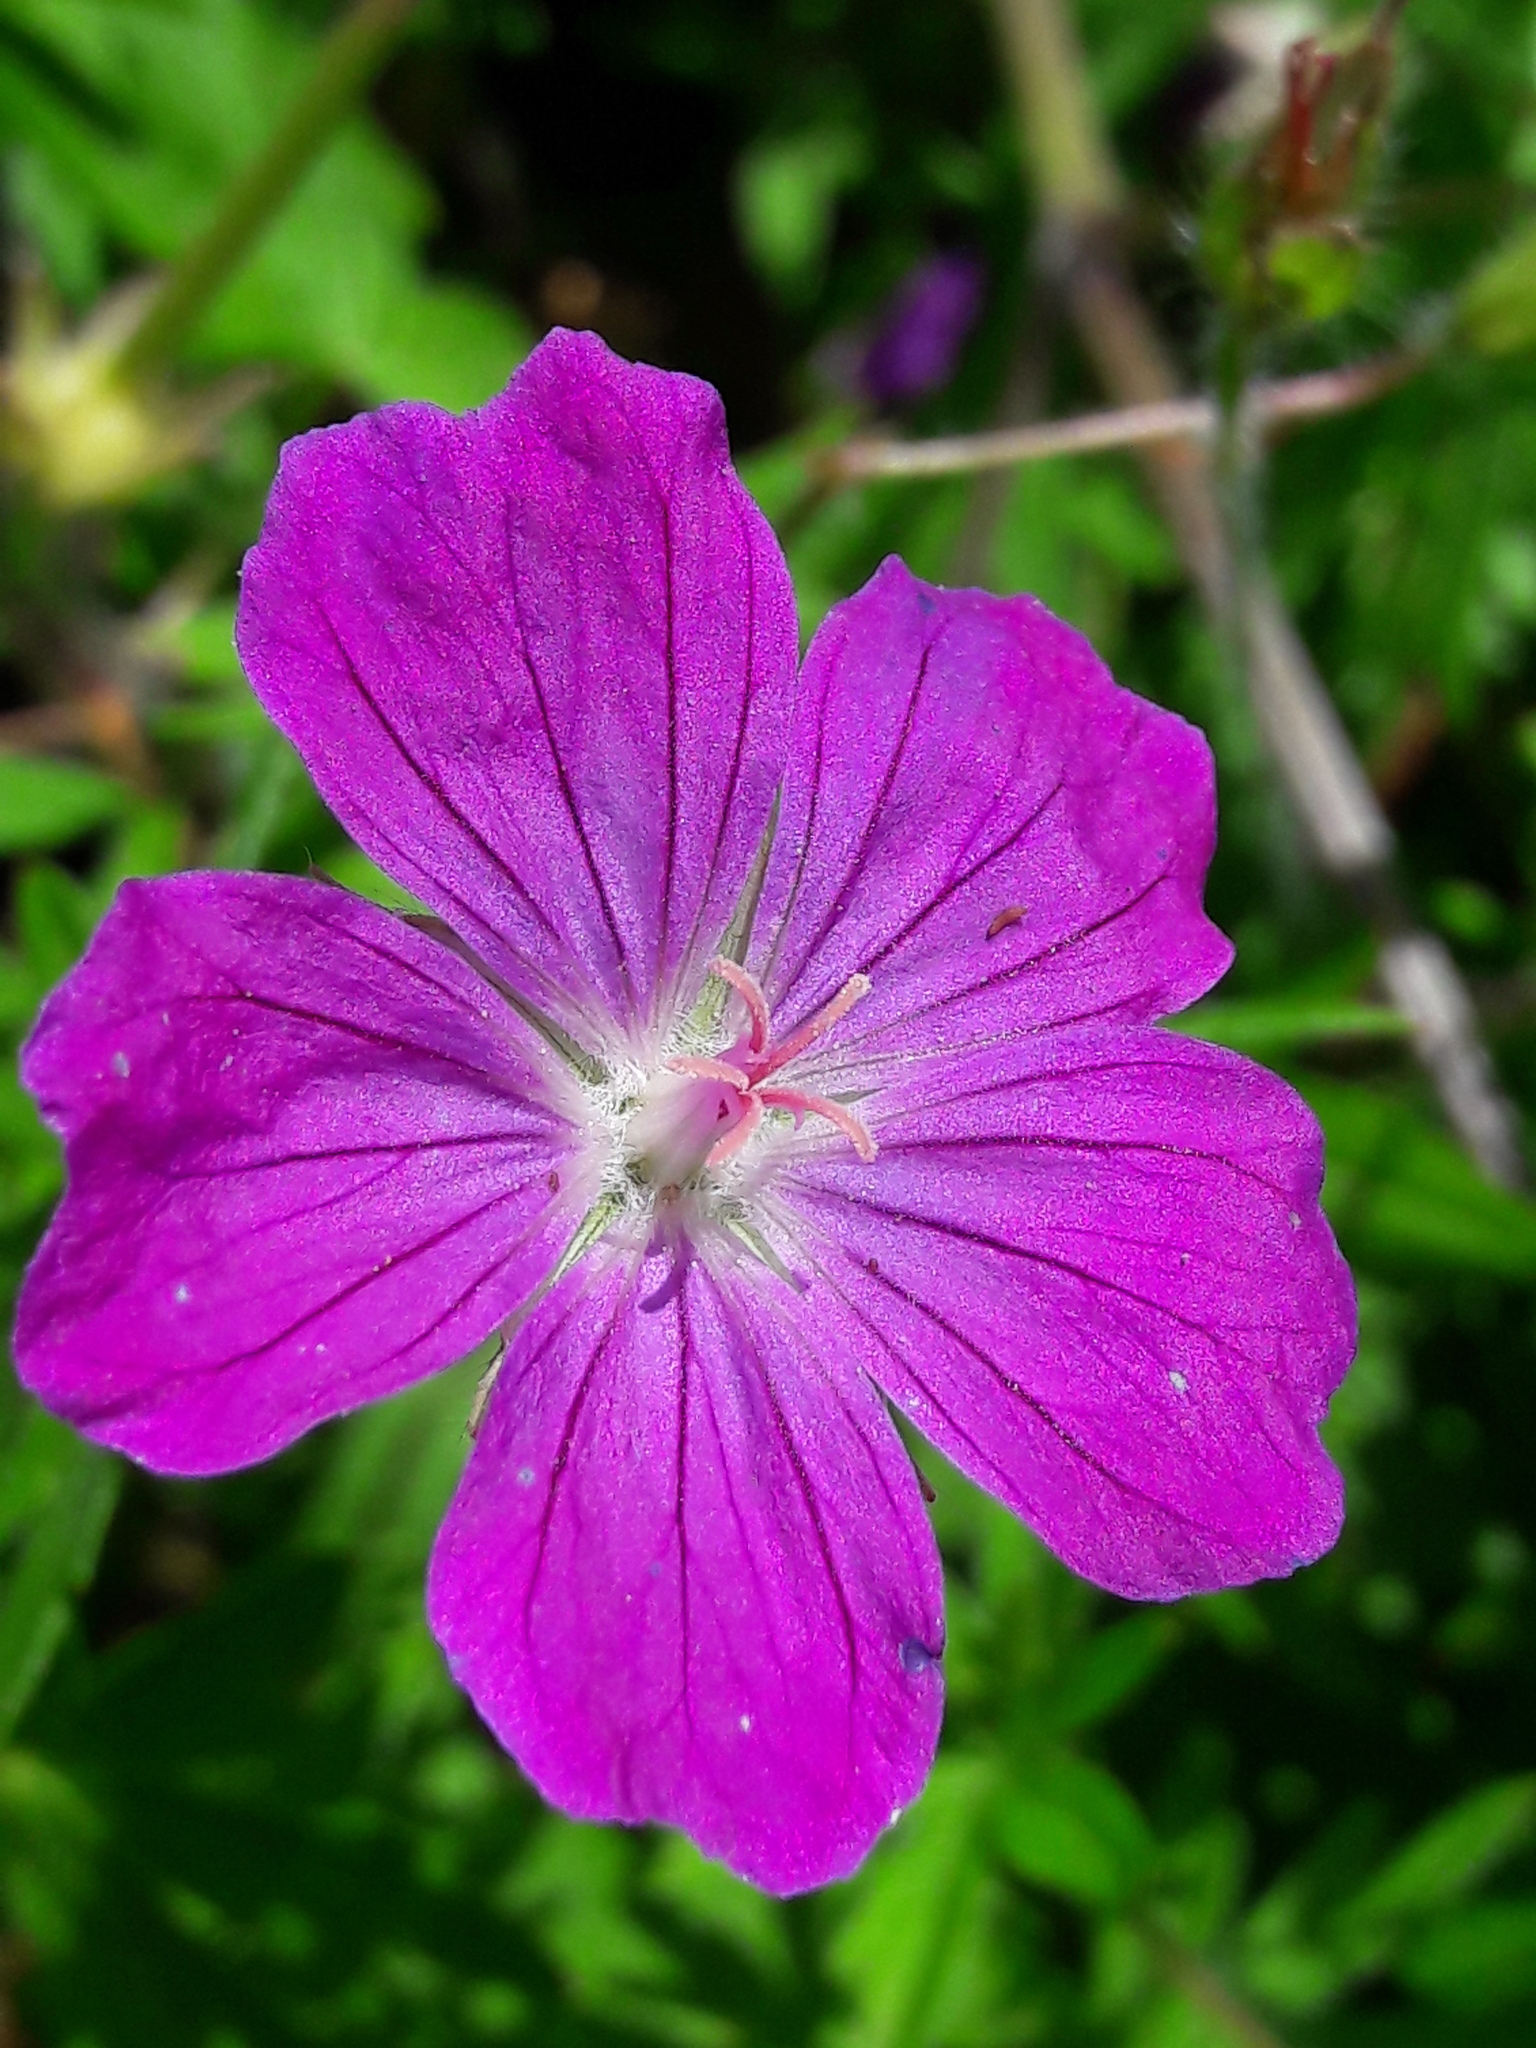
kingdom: Plantae
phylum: Tracheophyta
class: Magnoliopsida
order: Geraniales
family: Geraniaceae
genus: Geranium
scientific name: Geranium sanguineum
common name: Bloody crane's-bill
